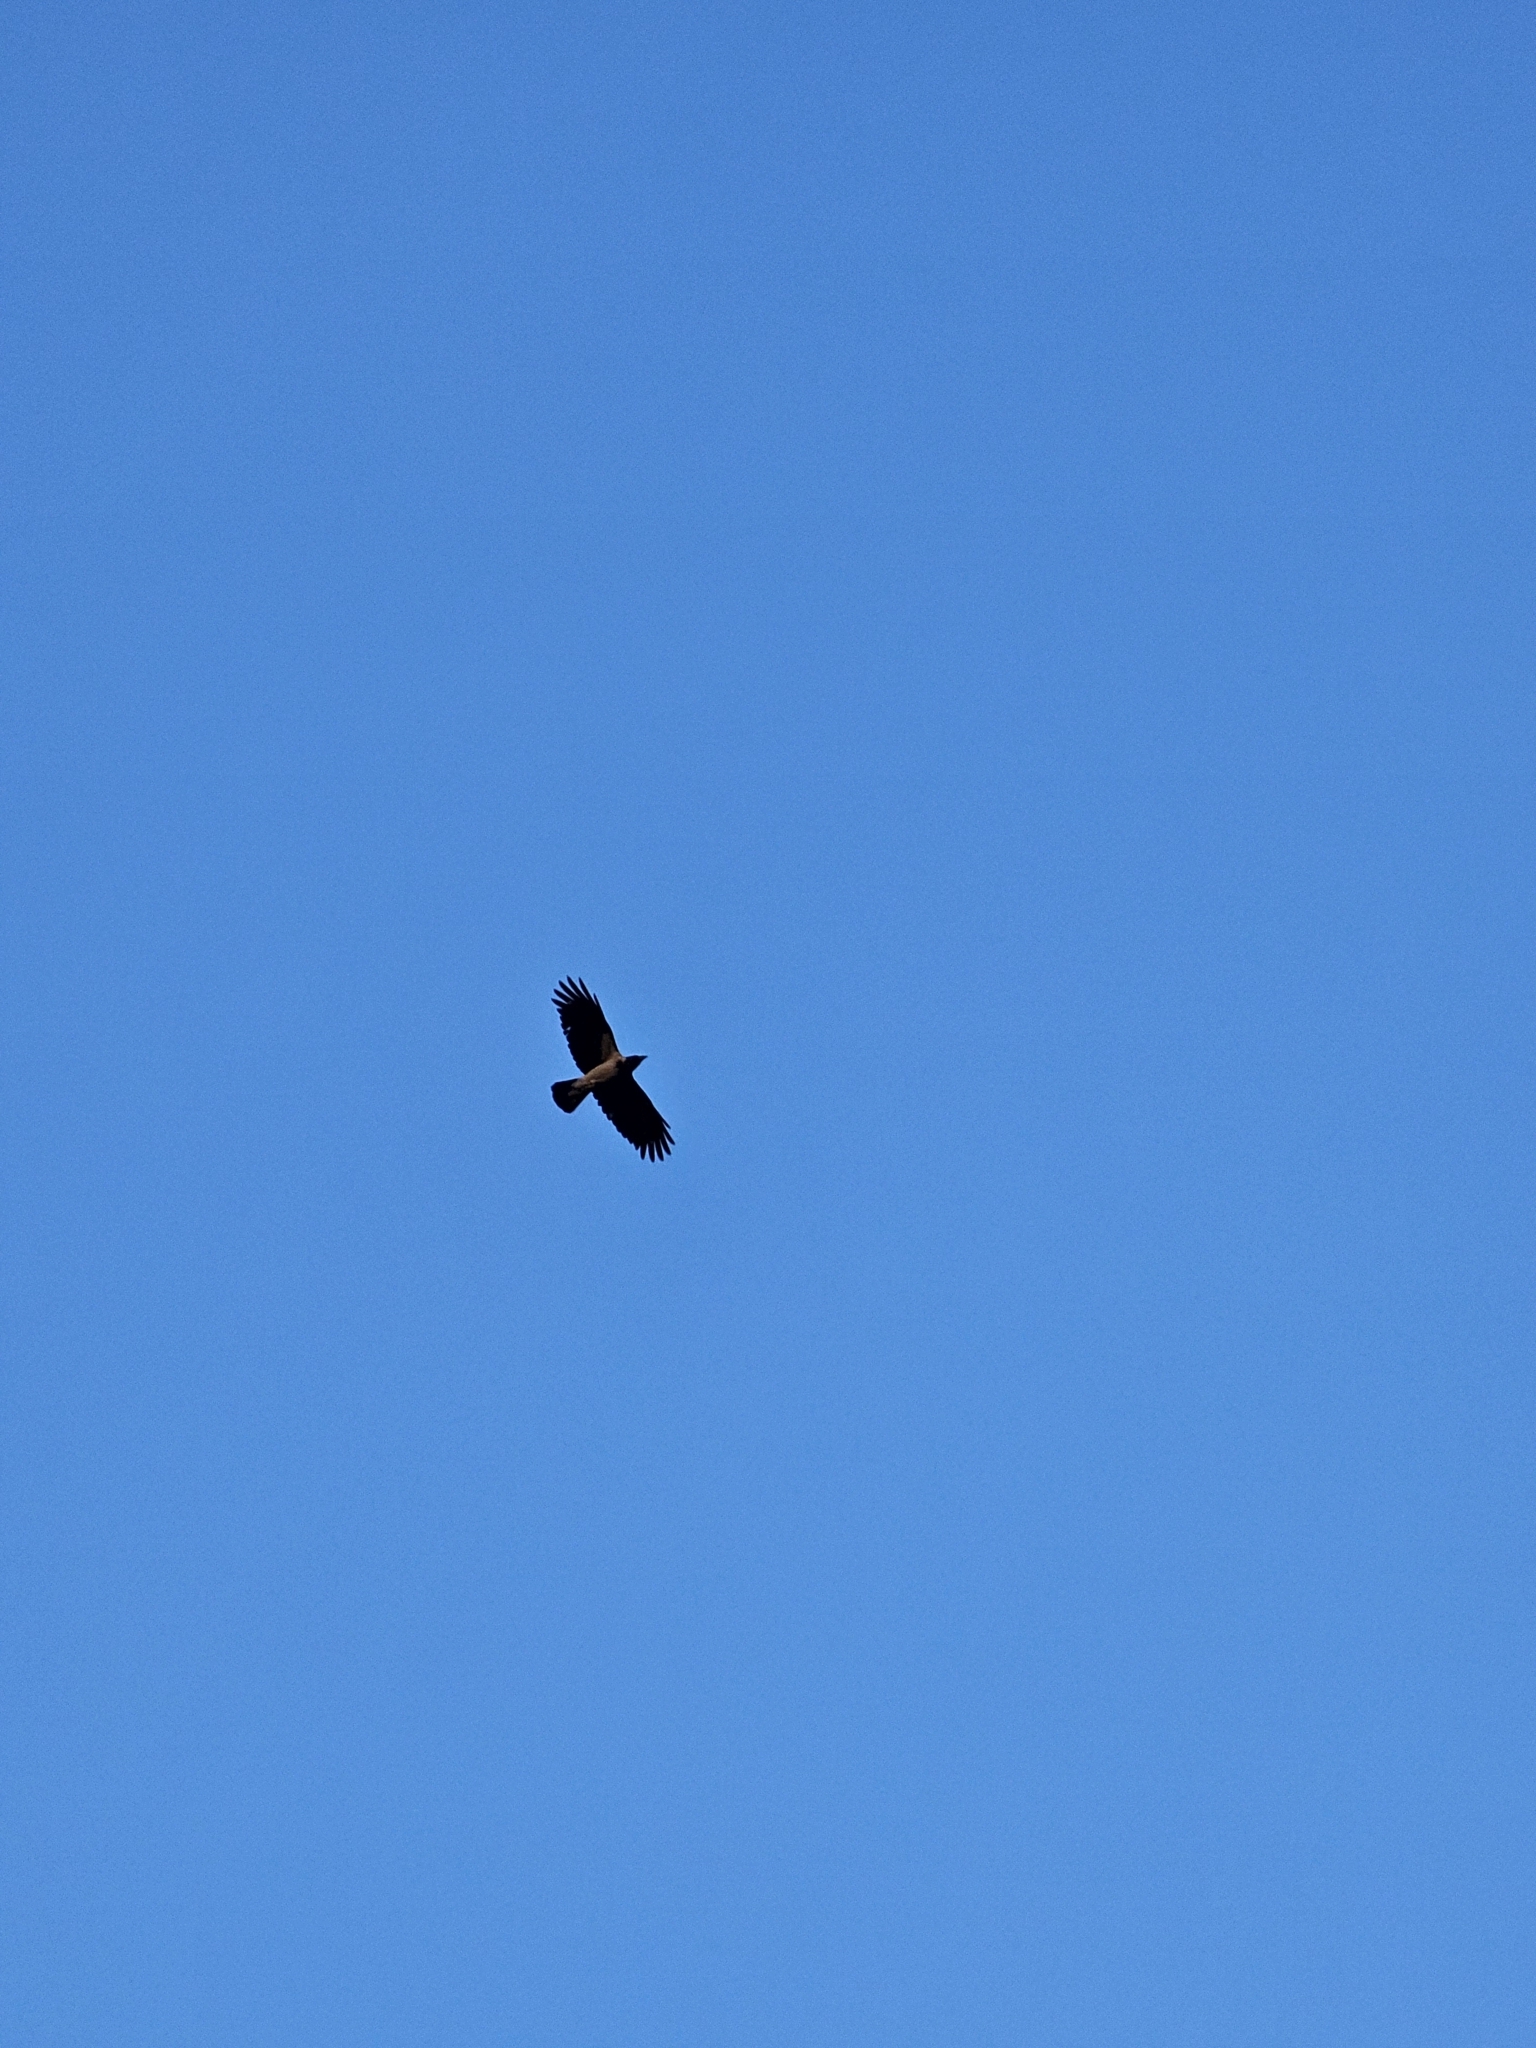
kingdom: Animalia
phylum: Chordata
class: Aves
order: Passeriformes
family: Corvidae
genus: Corvus
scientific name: Corvus cornix
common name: Hooded crow
